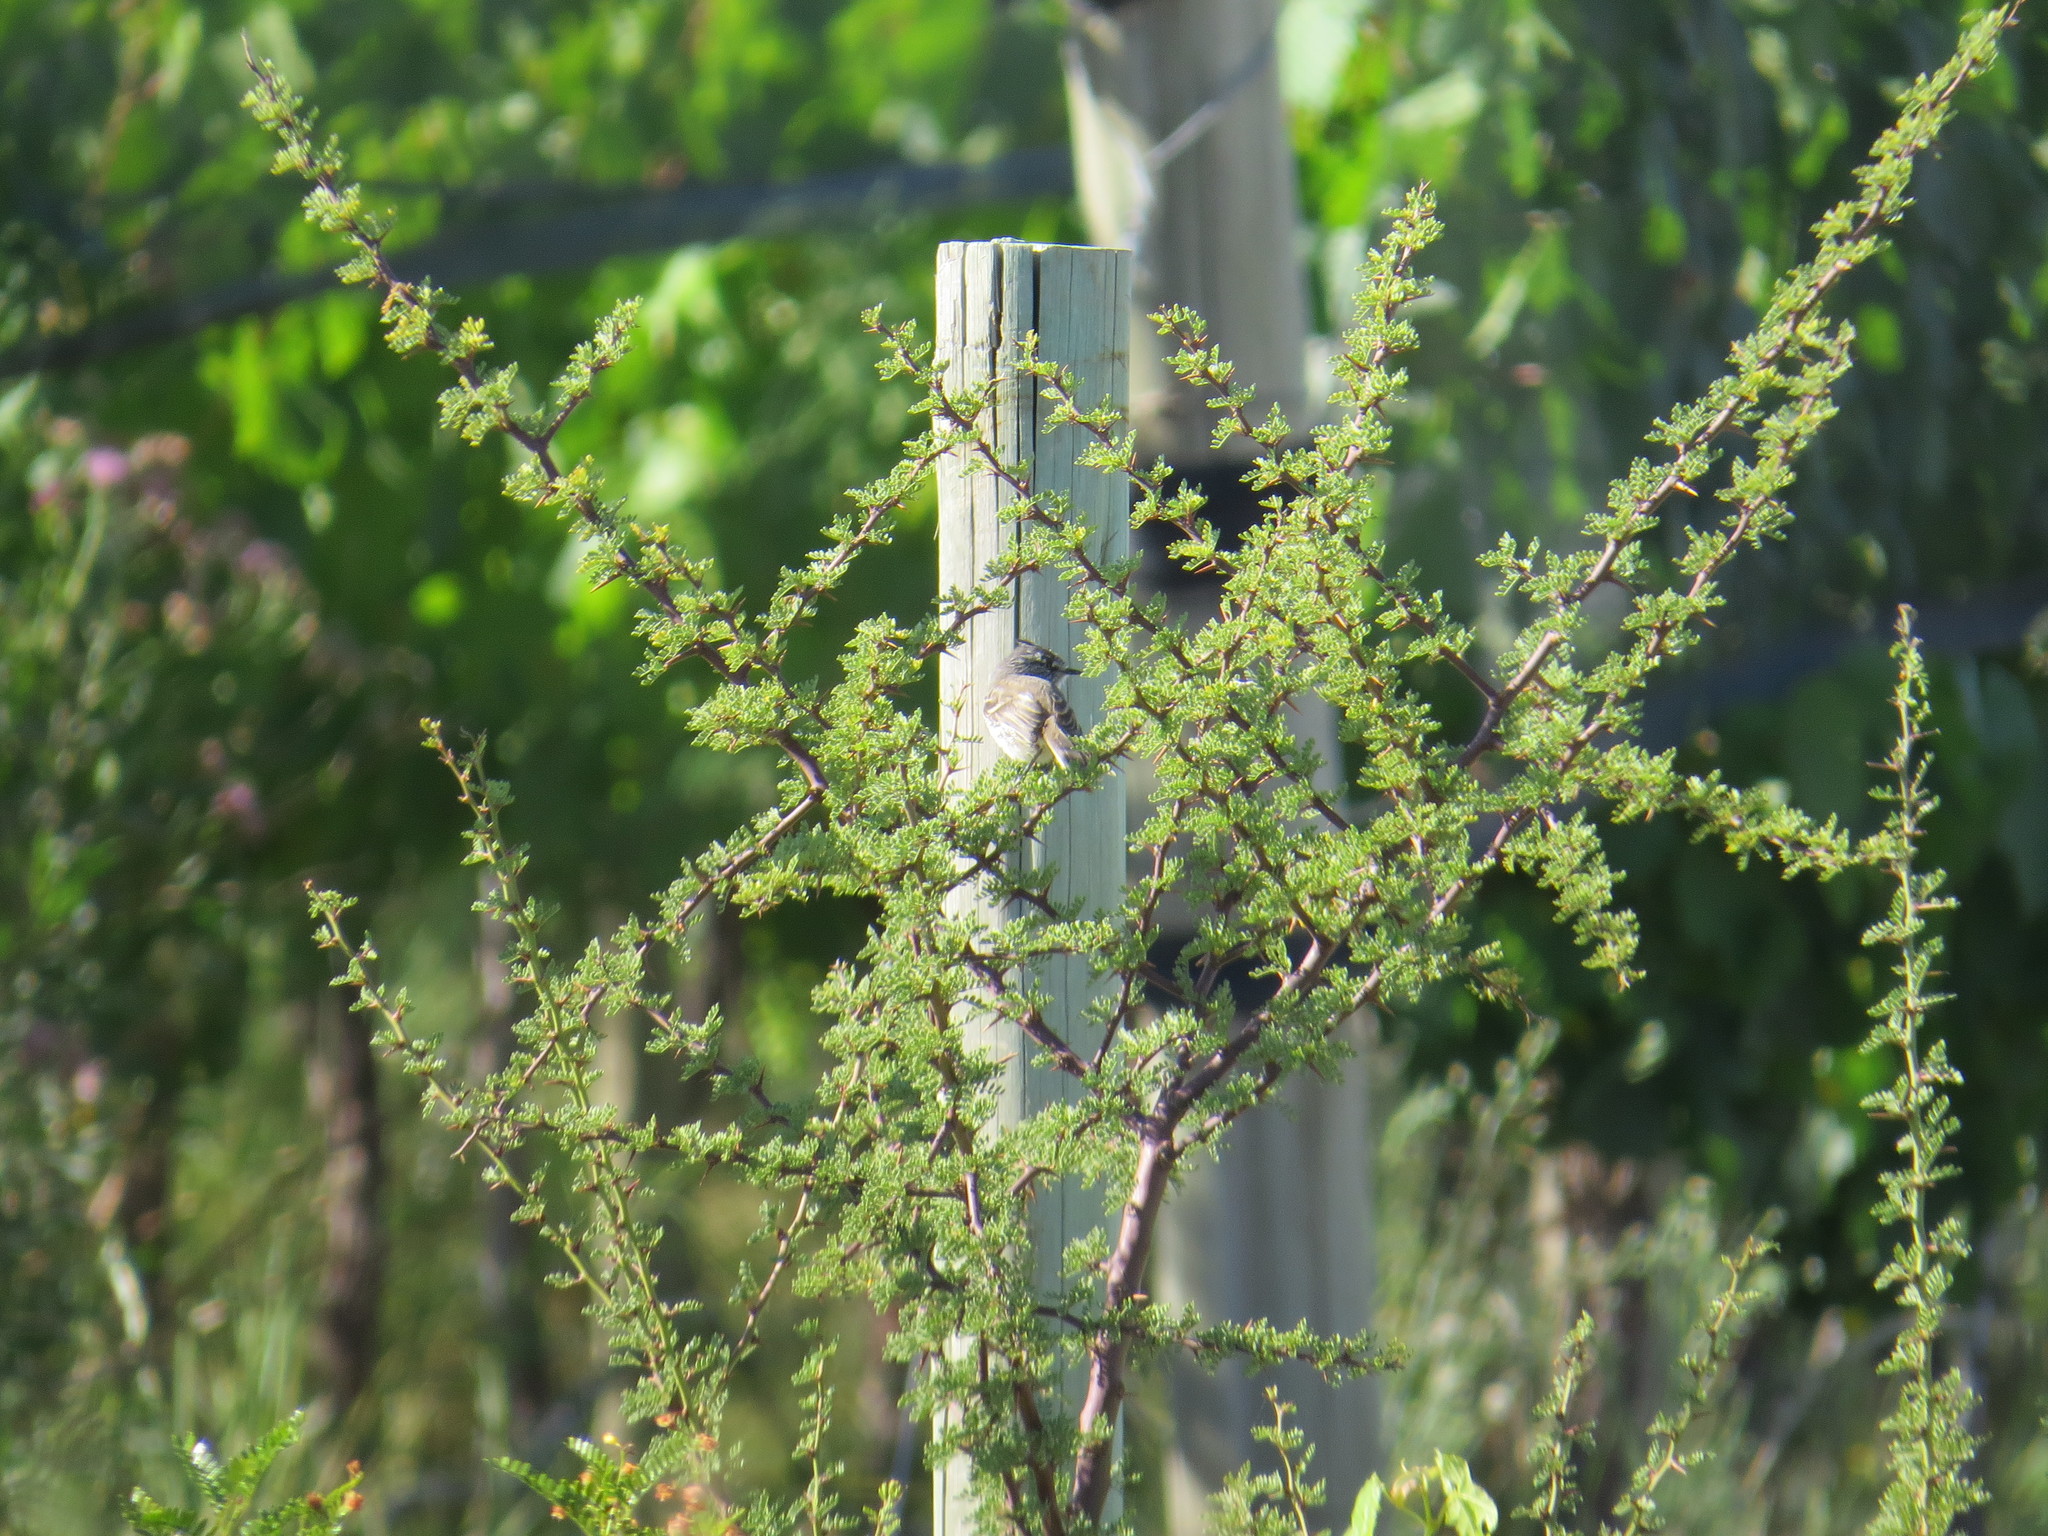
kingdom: Animalia
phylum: Chordata
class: Aves
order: Passeriformes
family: Tyrannidae
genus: Anairetes
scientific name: Anairetes parulus
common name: Tufted tit-tyrant
